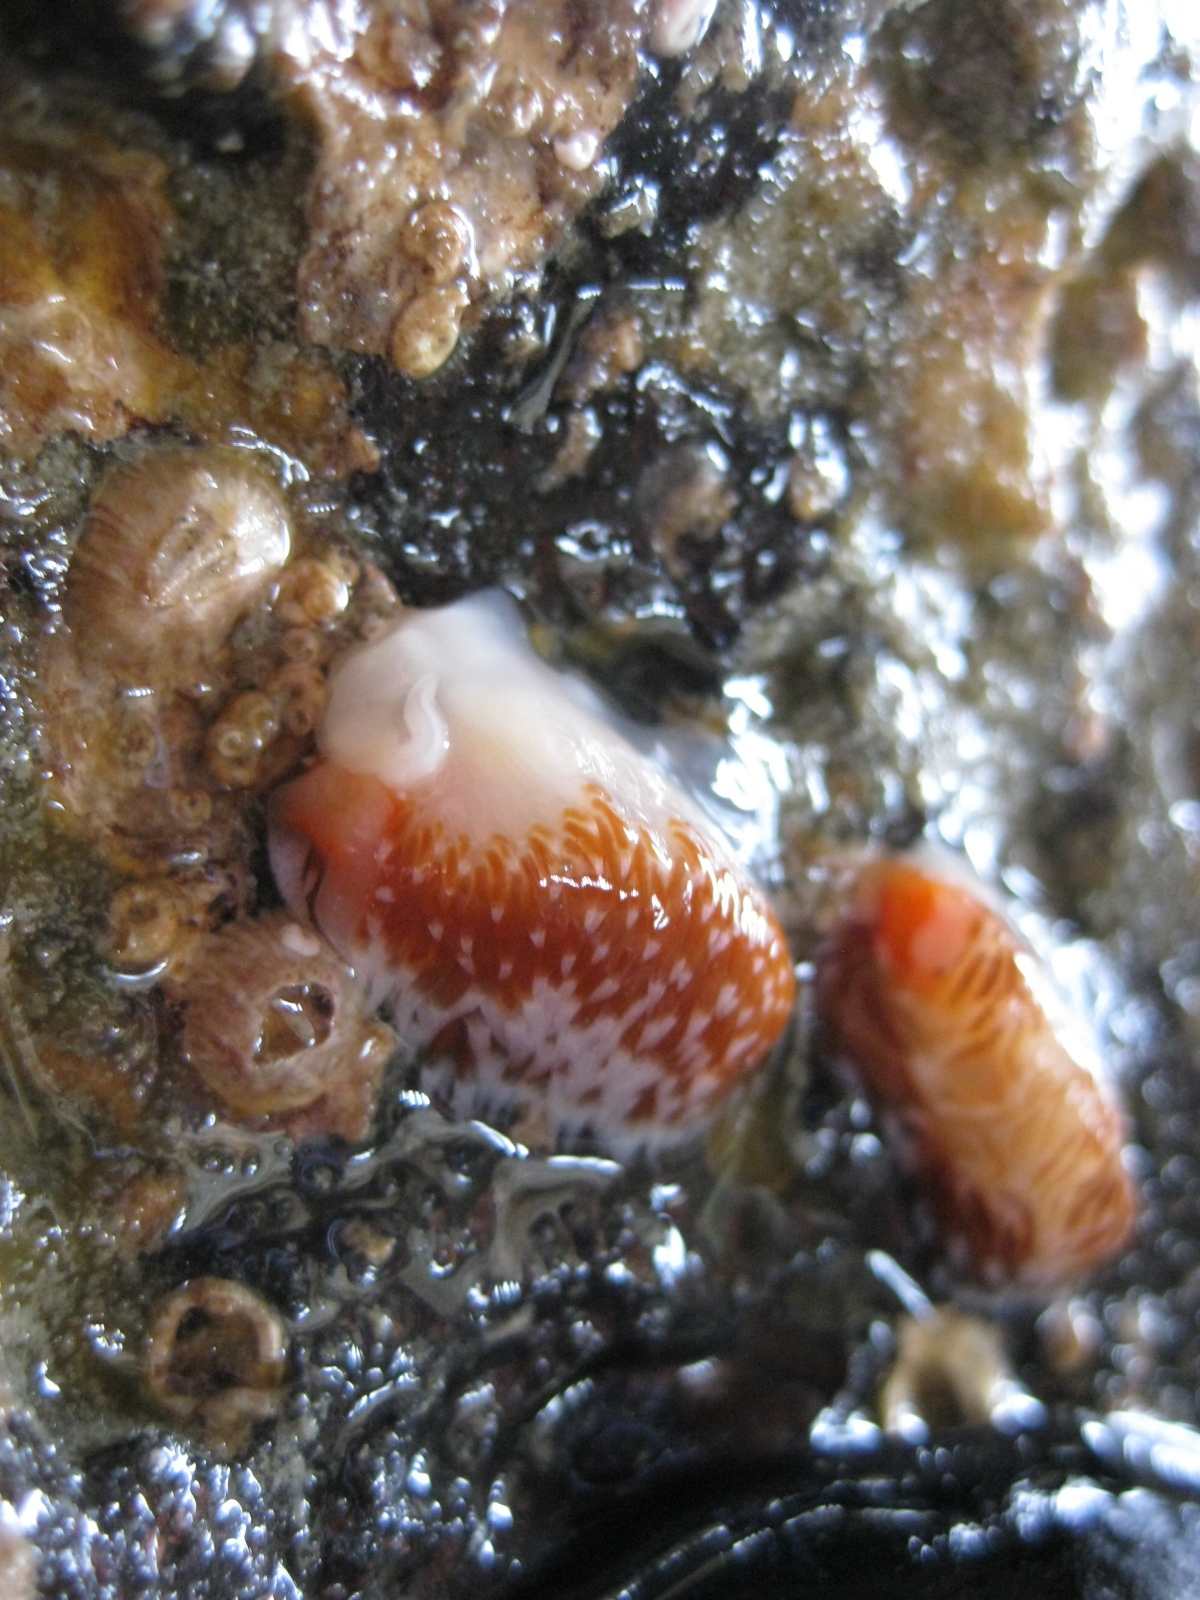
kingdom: Animalia
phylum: Mollusca
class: Gastropoda
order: Nudibranchia
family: Facelinidae
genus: Phidiana
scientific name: Phidiana milleri
